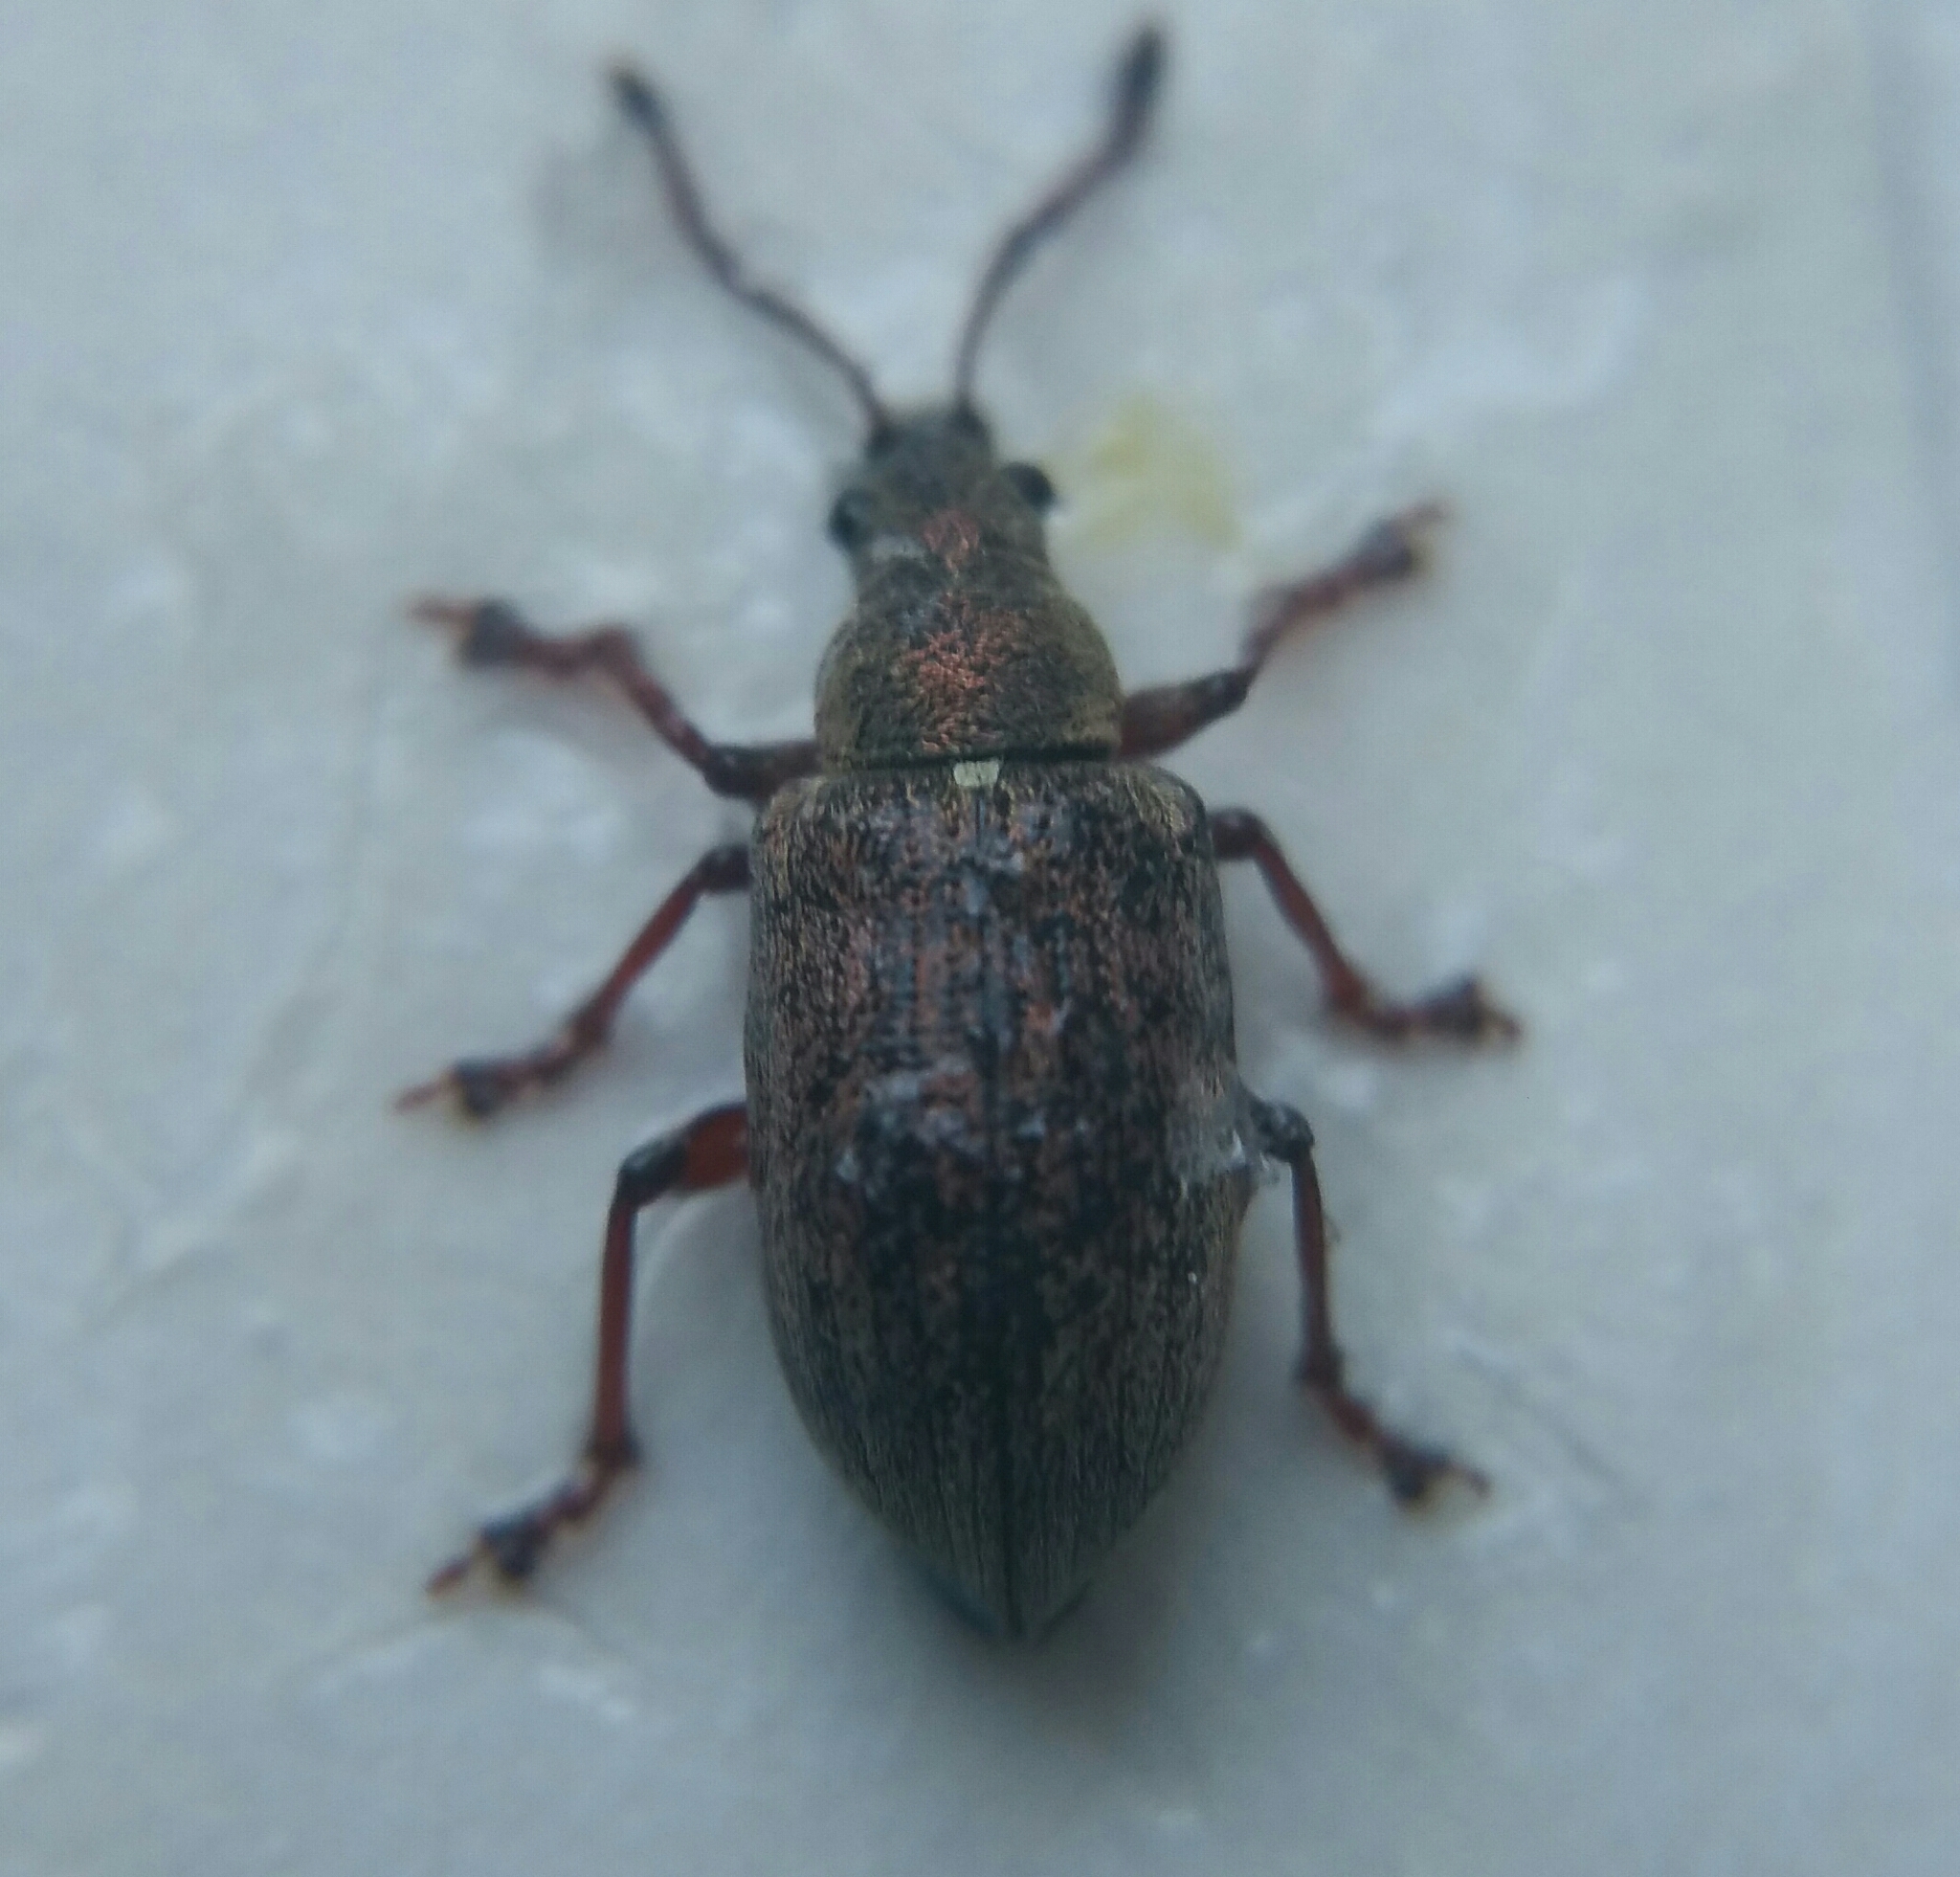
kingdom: Animalia
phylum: Arthropoda
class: Insecta
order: Coleoptera
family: Curculionidae
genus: Phyllobius
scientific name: Phyllobius pyri
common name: Common leaf weevil
